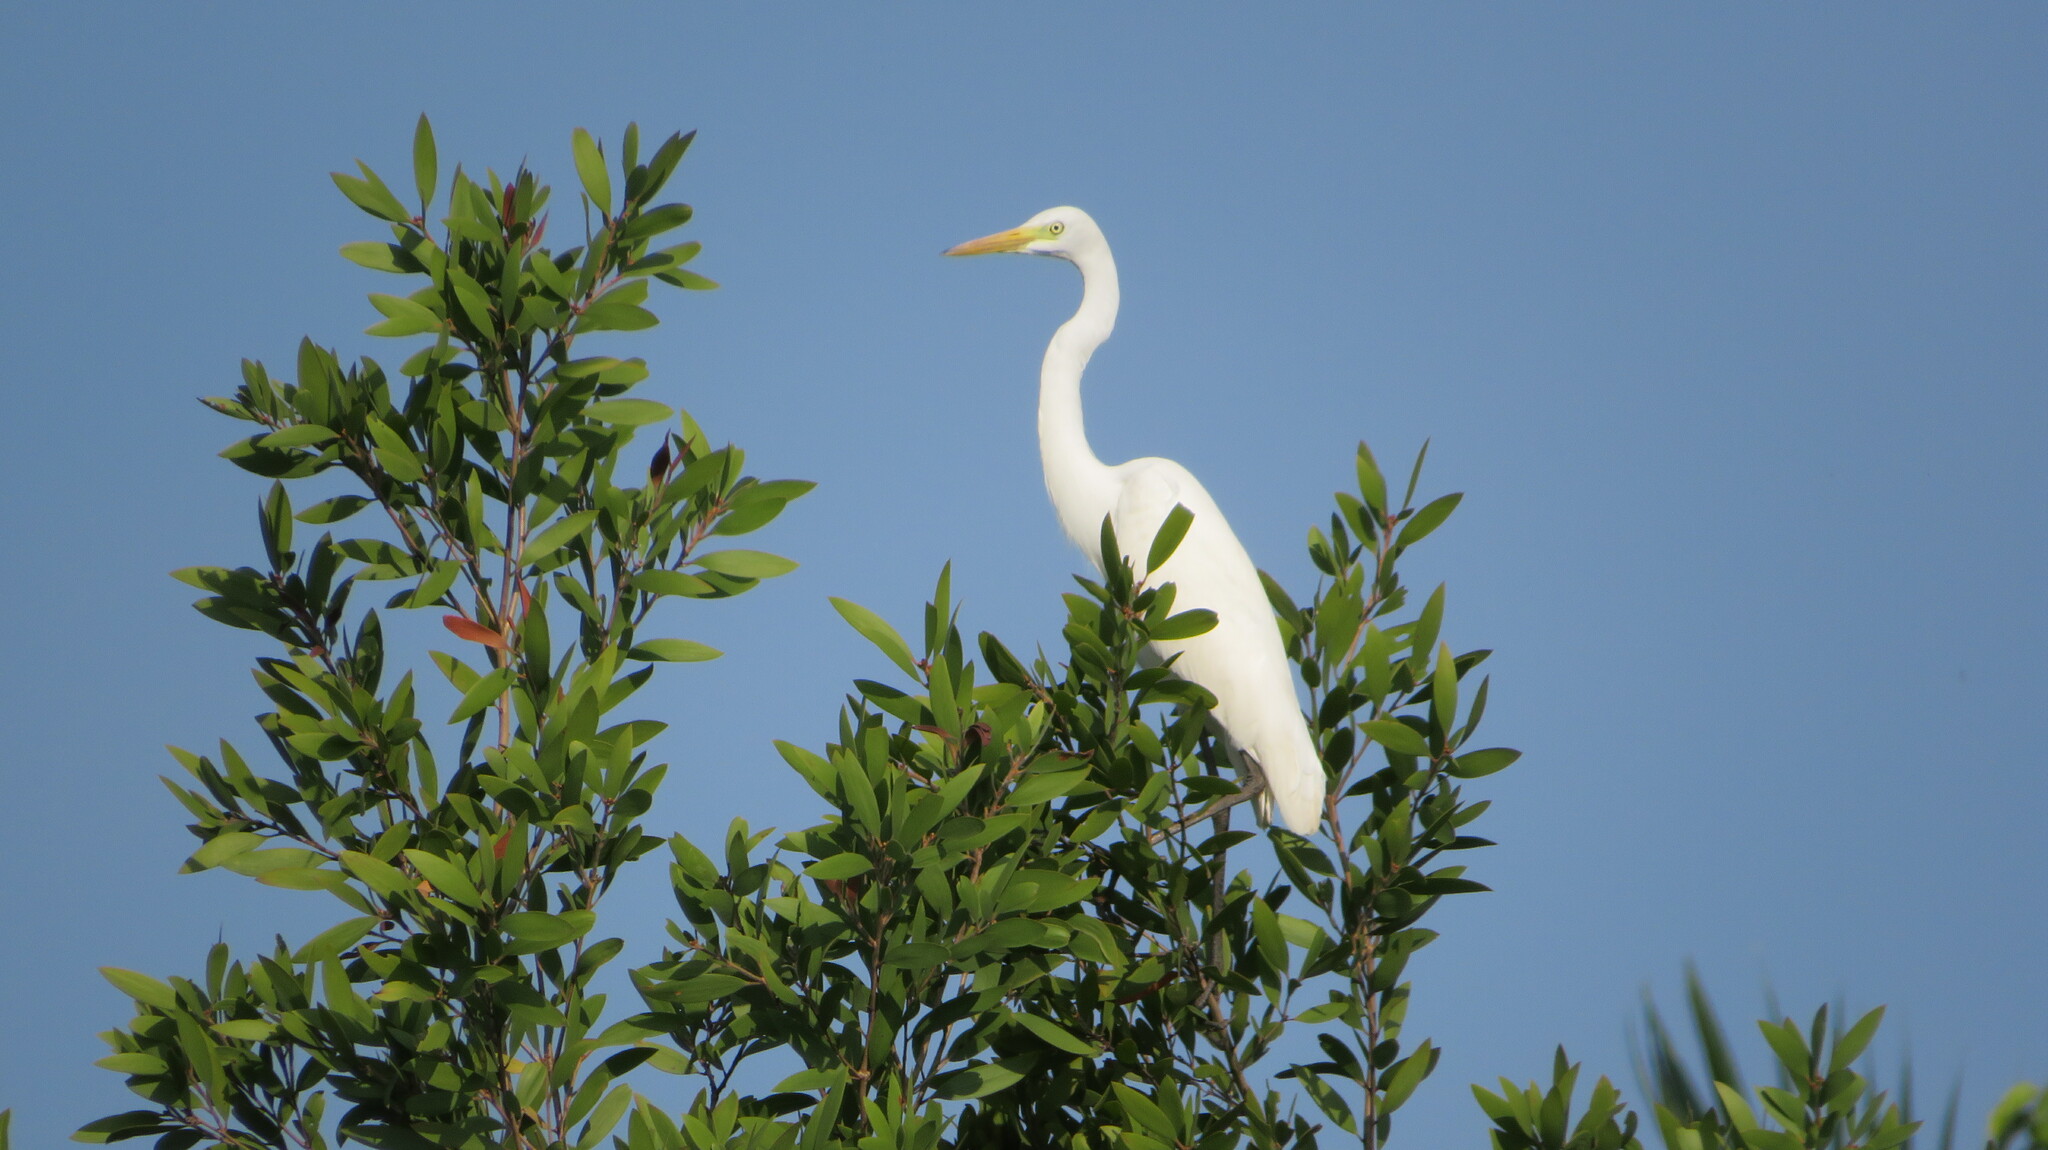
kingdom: Animalia
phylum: Chordata
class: Aves
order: Pelecaniformes
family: Ardeidae
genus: Egretta
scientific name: Egretta intermedia
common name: Intermediate egret
